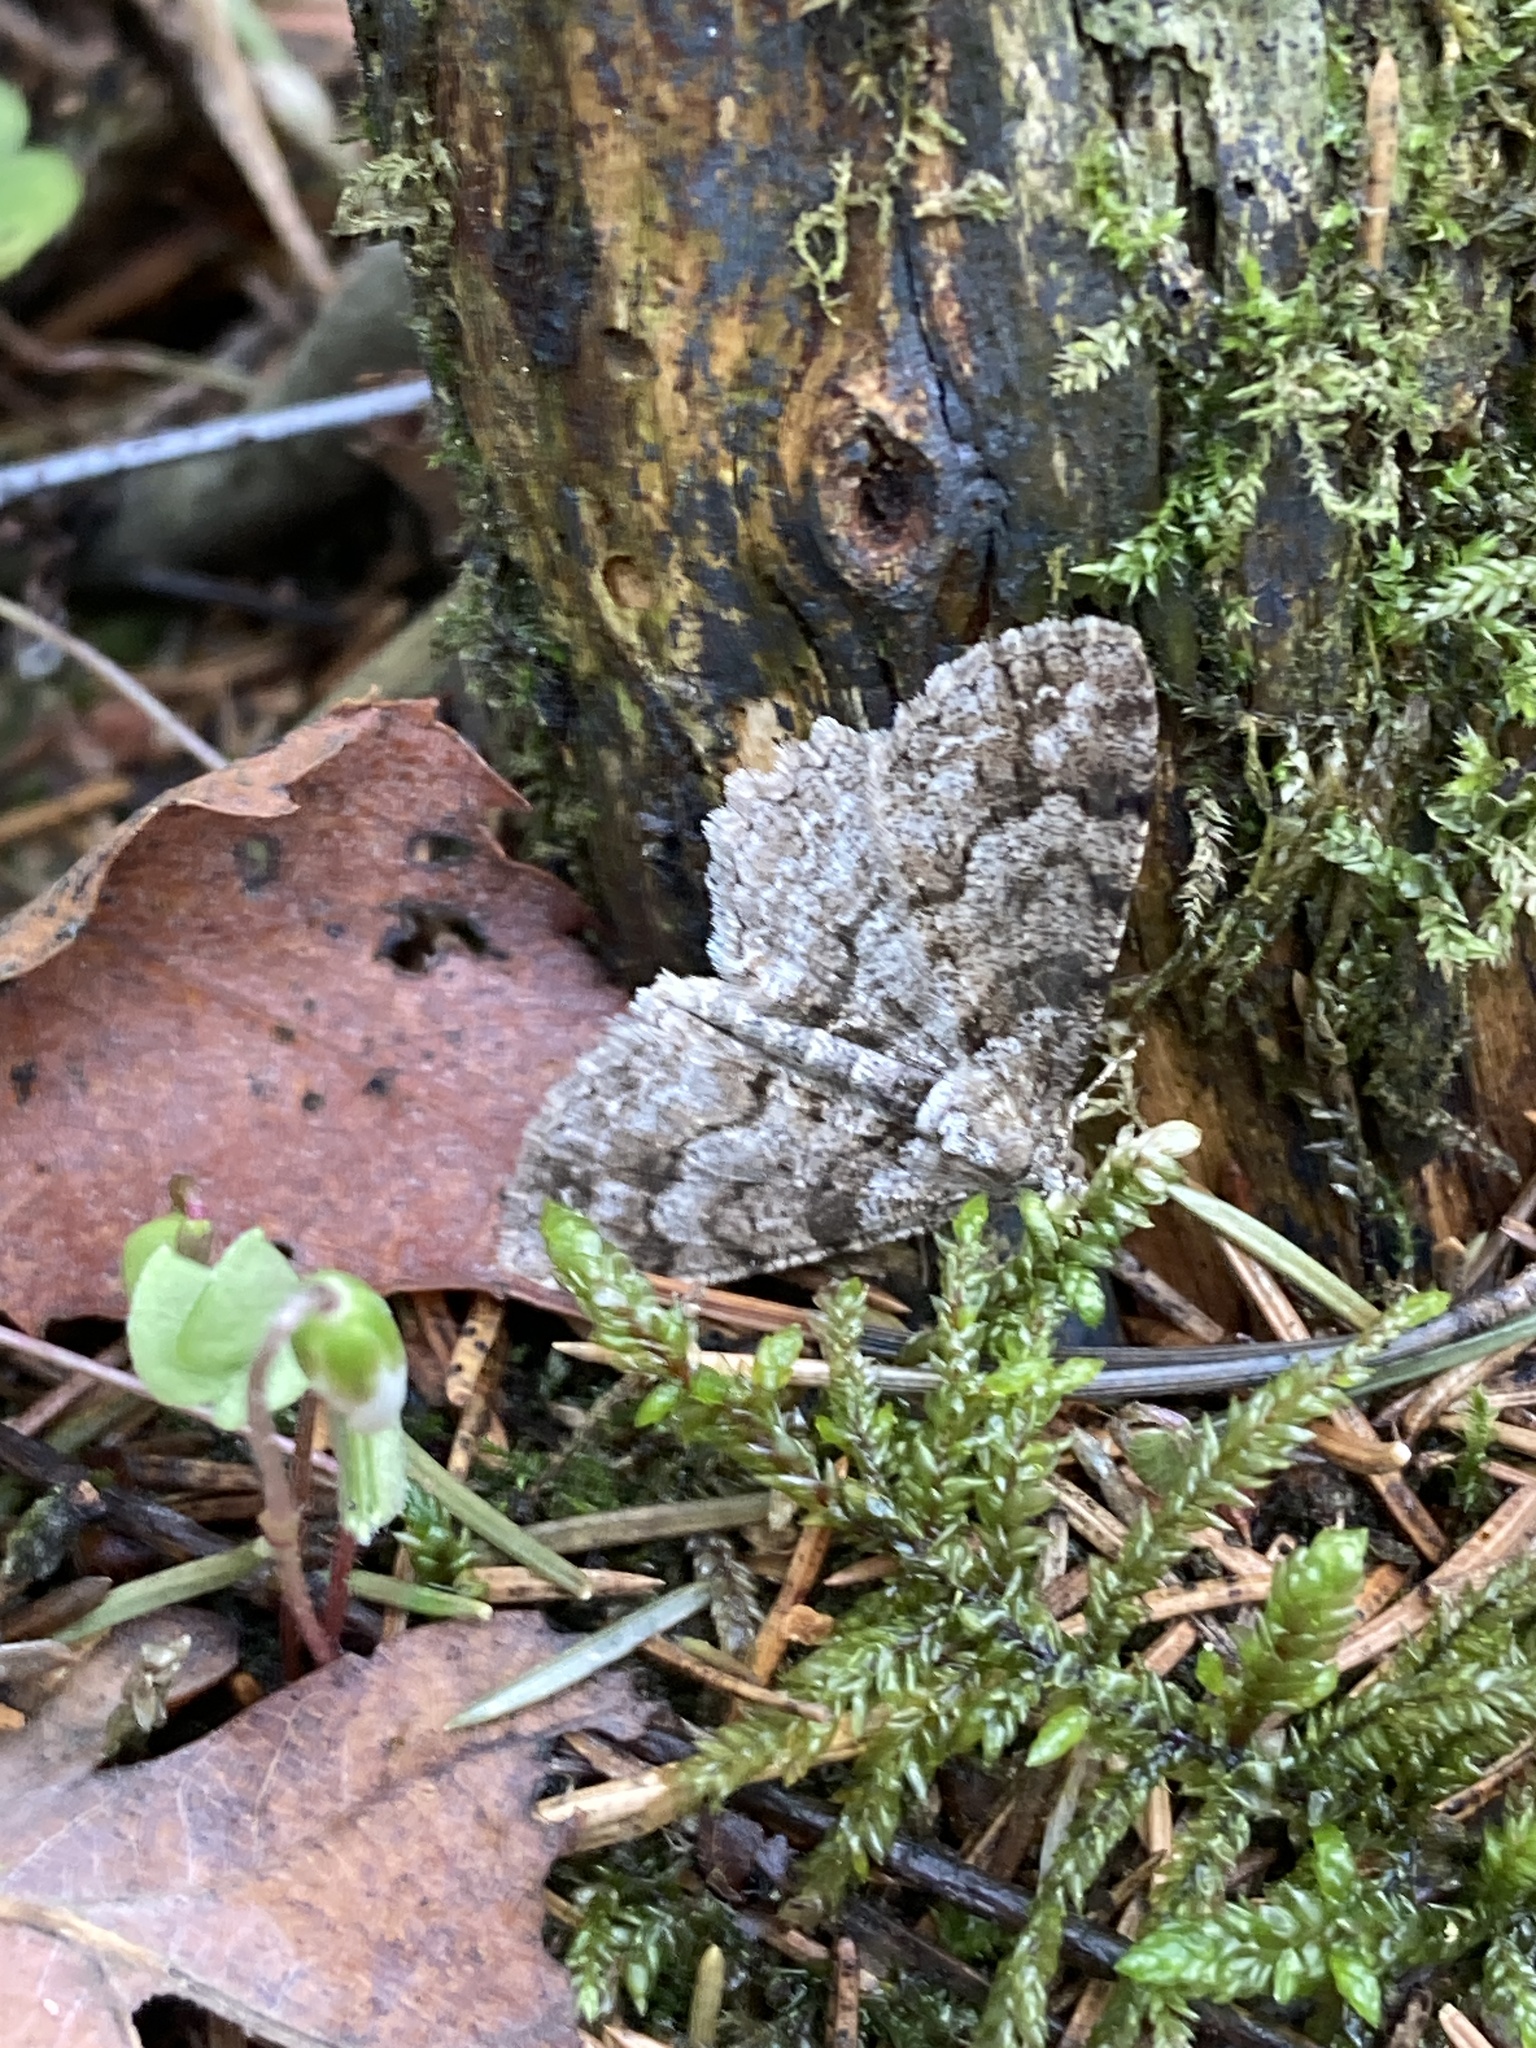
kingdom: Animalia
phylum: Arthropoda
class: Insecta
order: Lepidoptera
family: Geometridae
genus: Paradarisa
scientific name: Paradarisa consonaria
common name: Square spot
